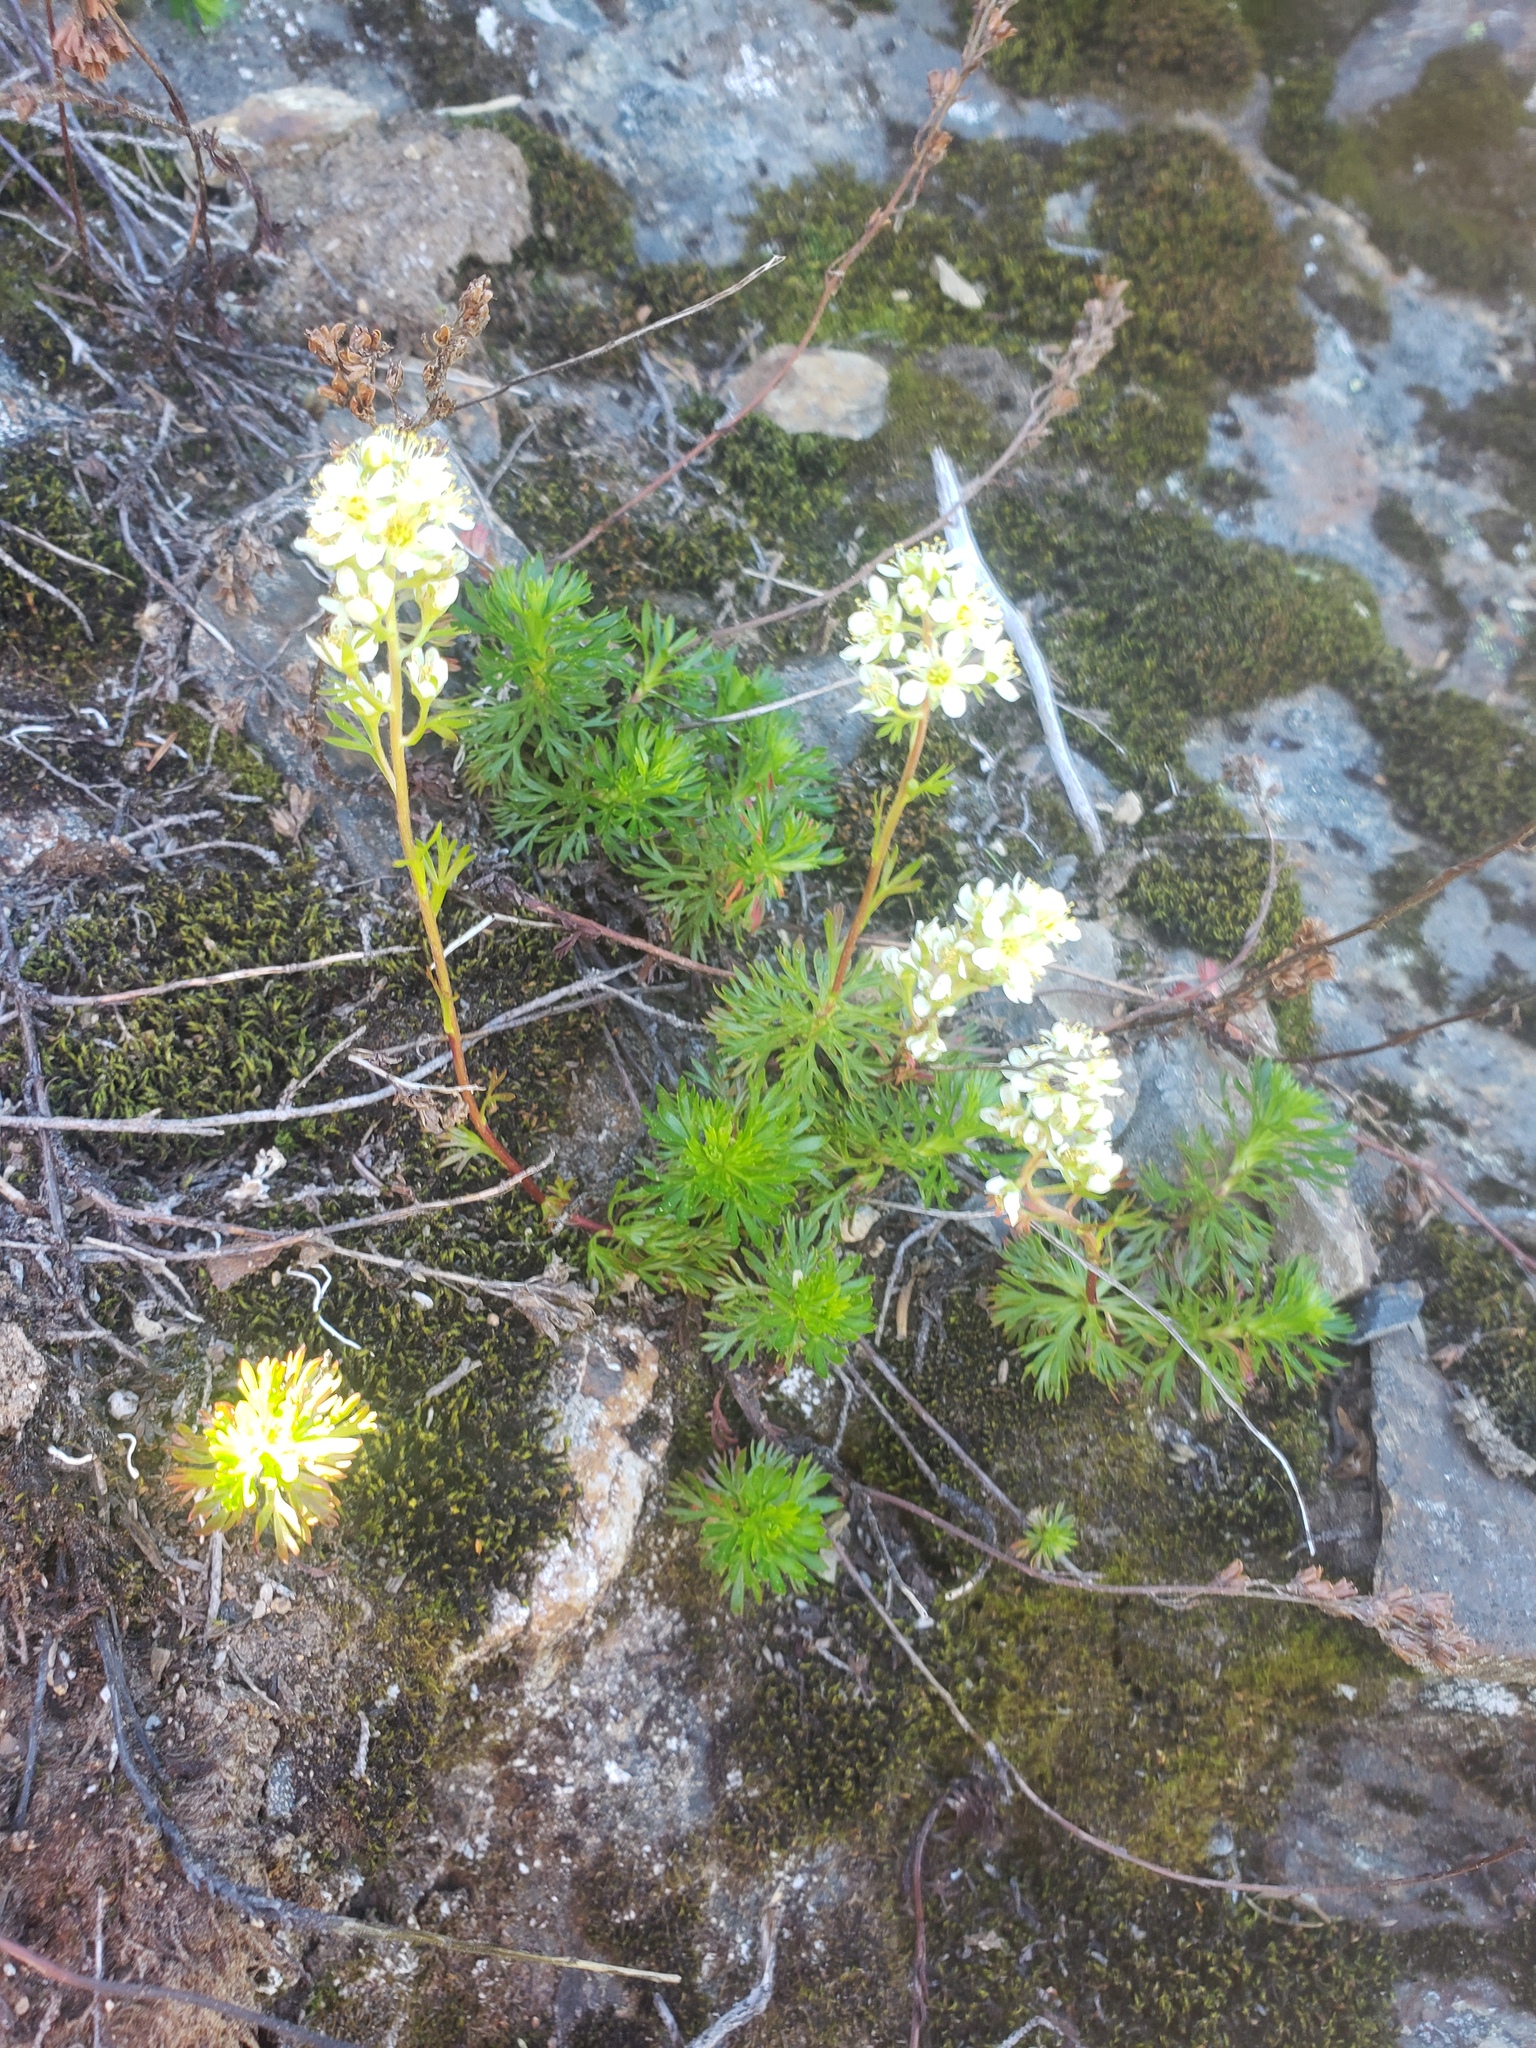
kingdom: Plantae
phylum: Tracheophyta
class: Magnoliopsida
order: Rosales
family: Rosaceae
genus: Luetkea
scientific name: Luetkea pectinata
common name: Partridgefoot
